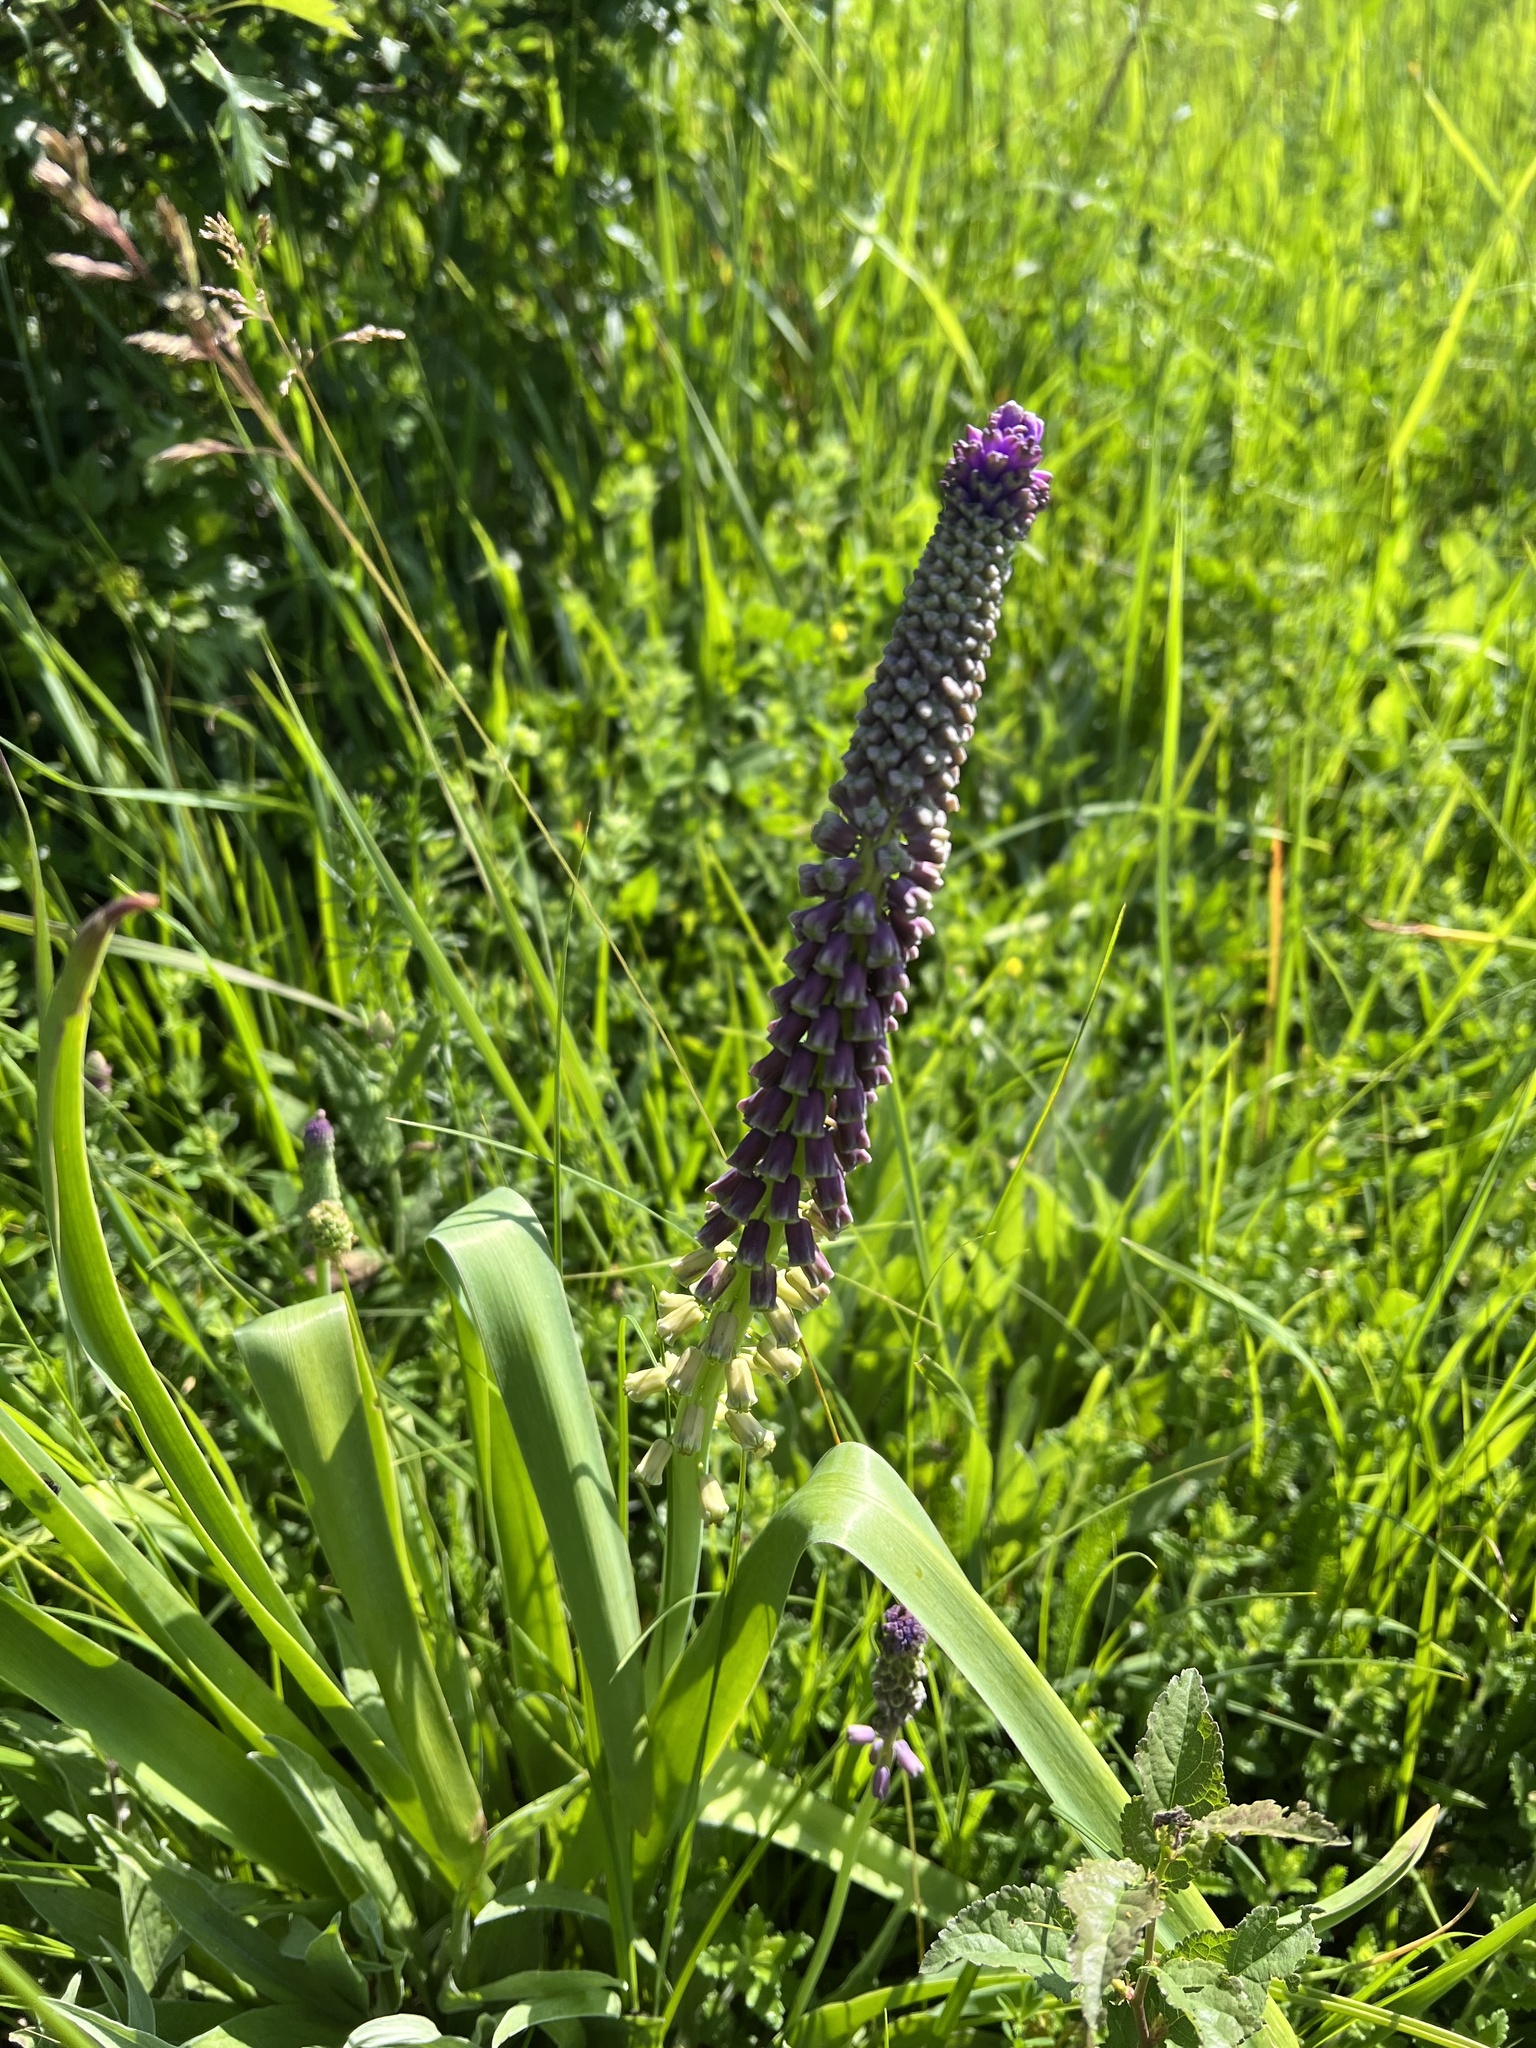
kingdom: Plantae
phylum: Tracheophyta
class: Liliopsida
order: Asparagales
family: Asparagaceae
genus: Muscari
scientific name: Muscari comosum
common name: Tassel hyacinth
